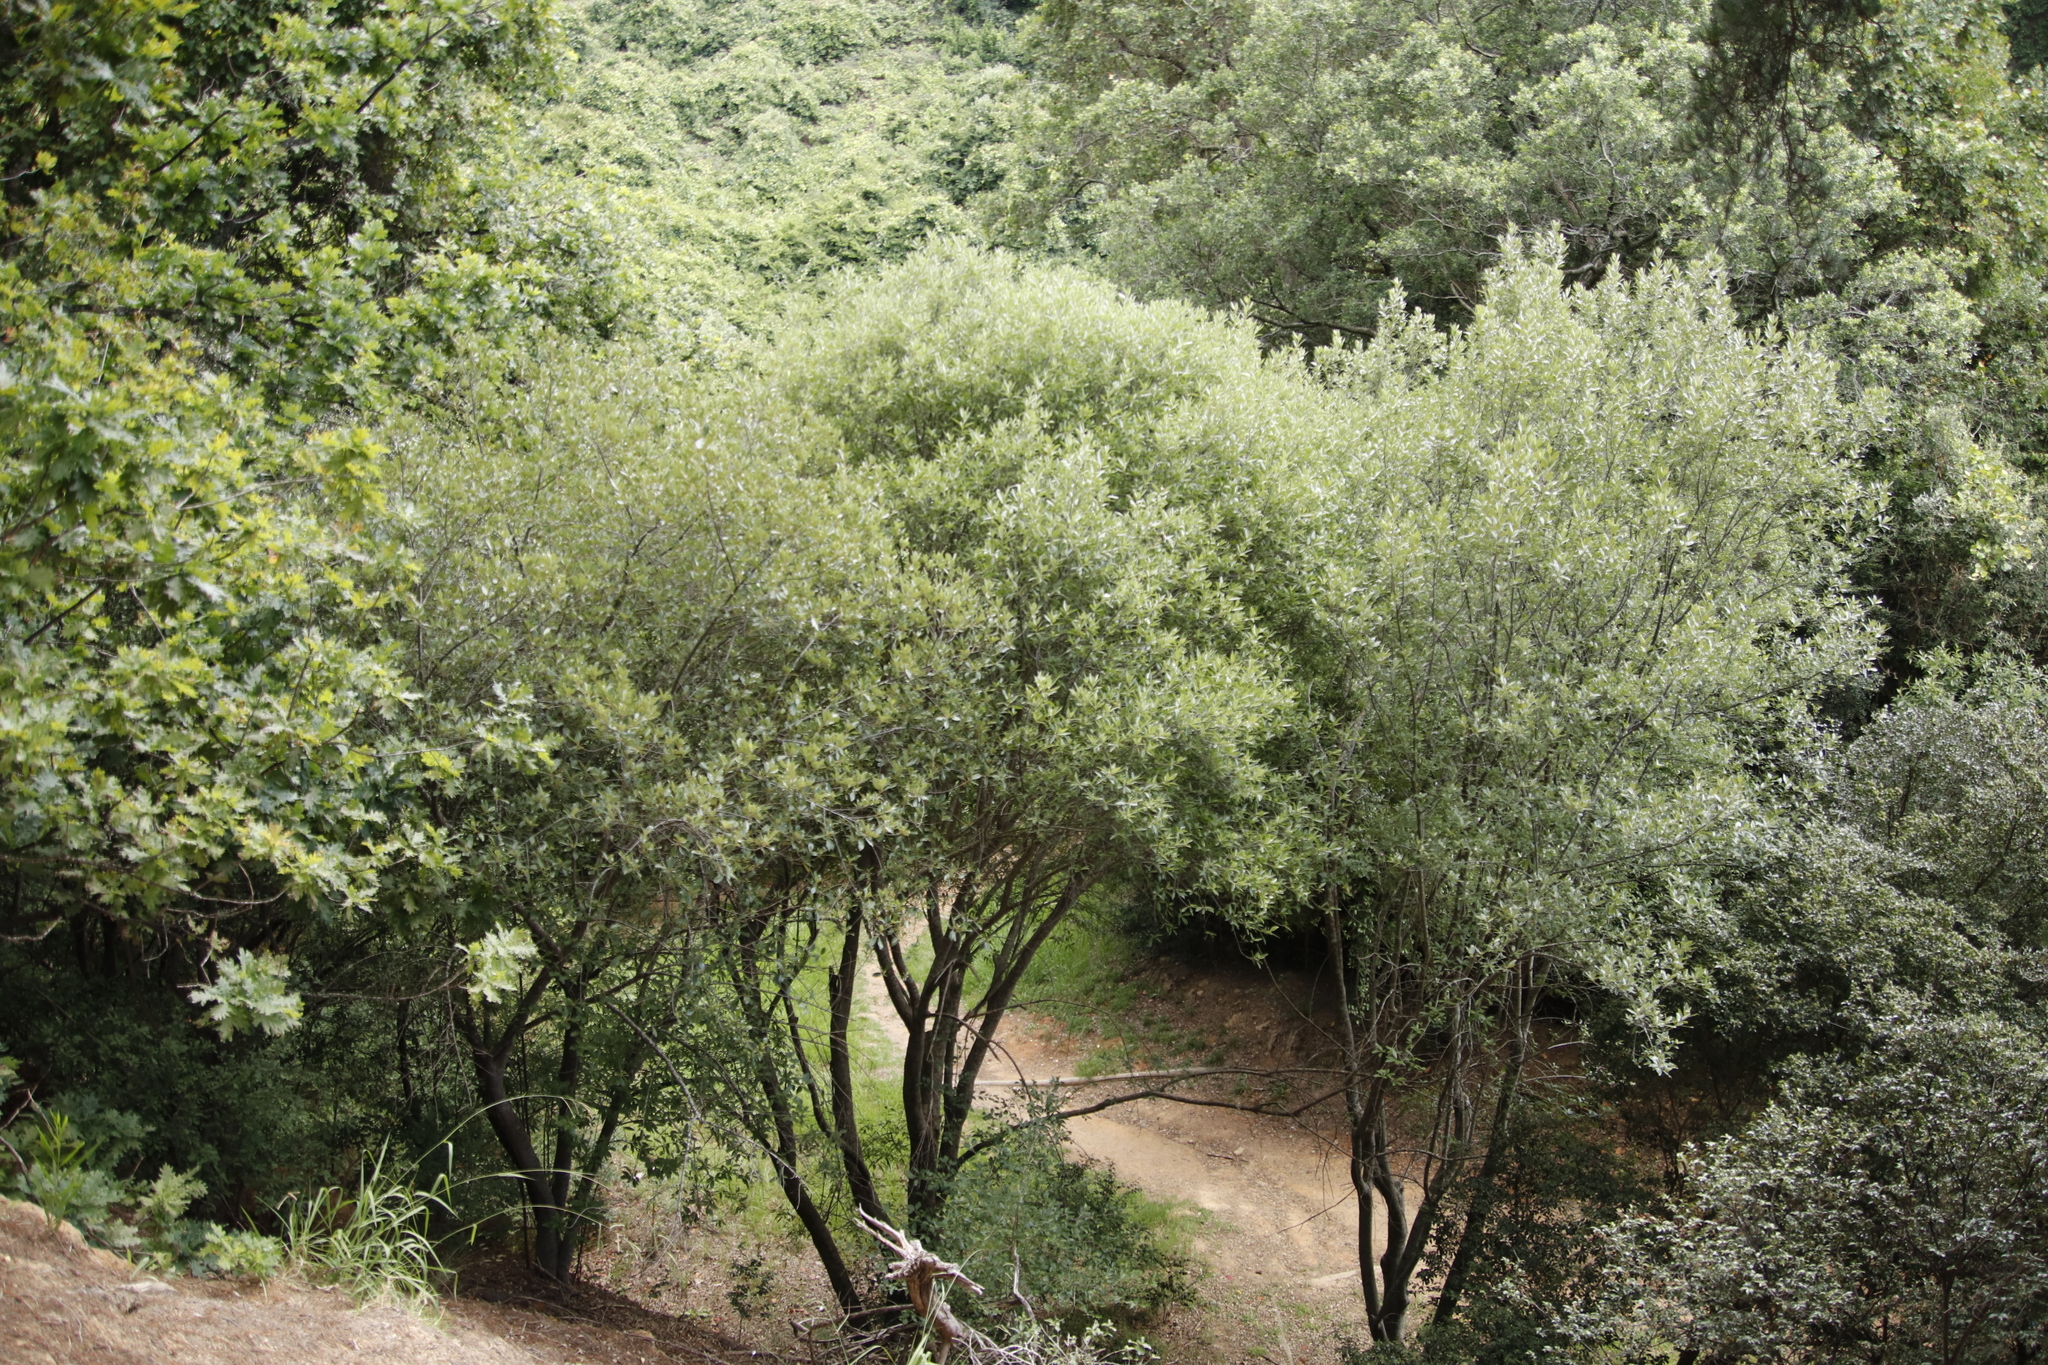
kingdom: Plantae
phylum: Tracheophyta
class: Magnoliopsida
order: Malpighiales
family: Achariaceae
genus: Kiggelaria
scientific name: Kiggelaria africana
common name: Wild peach
